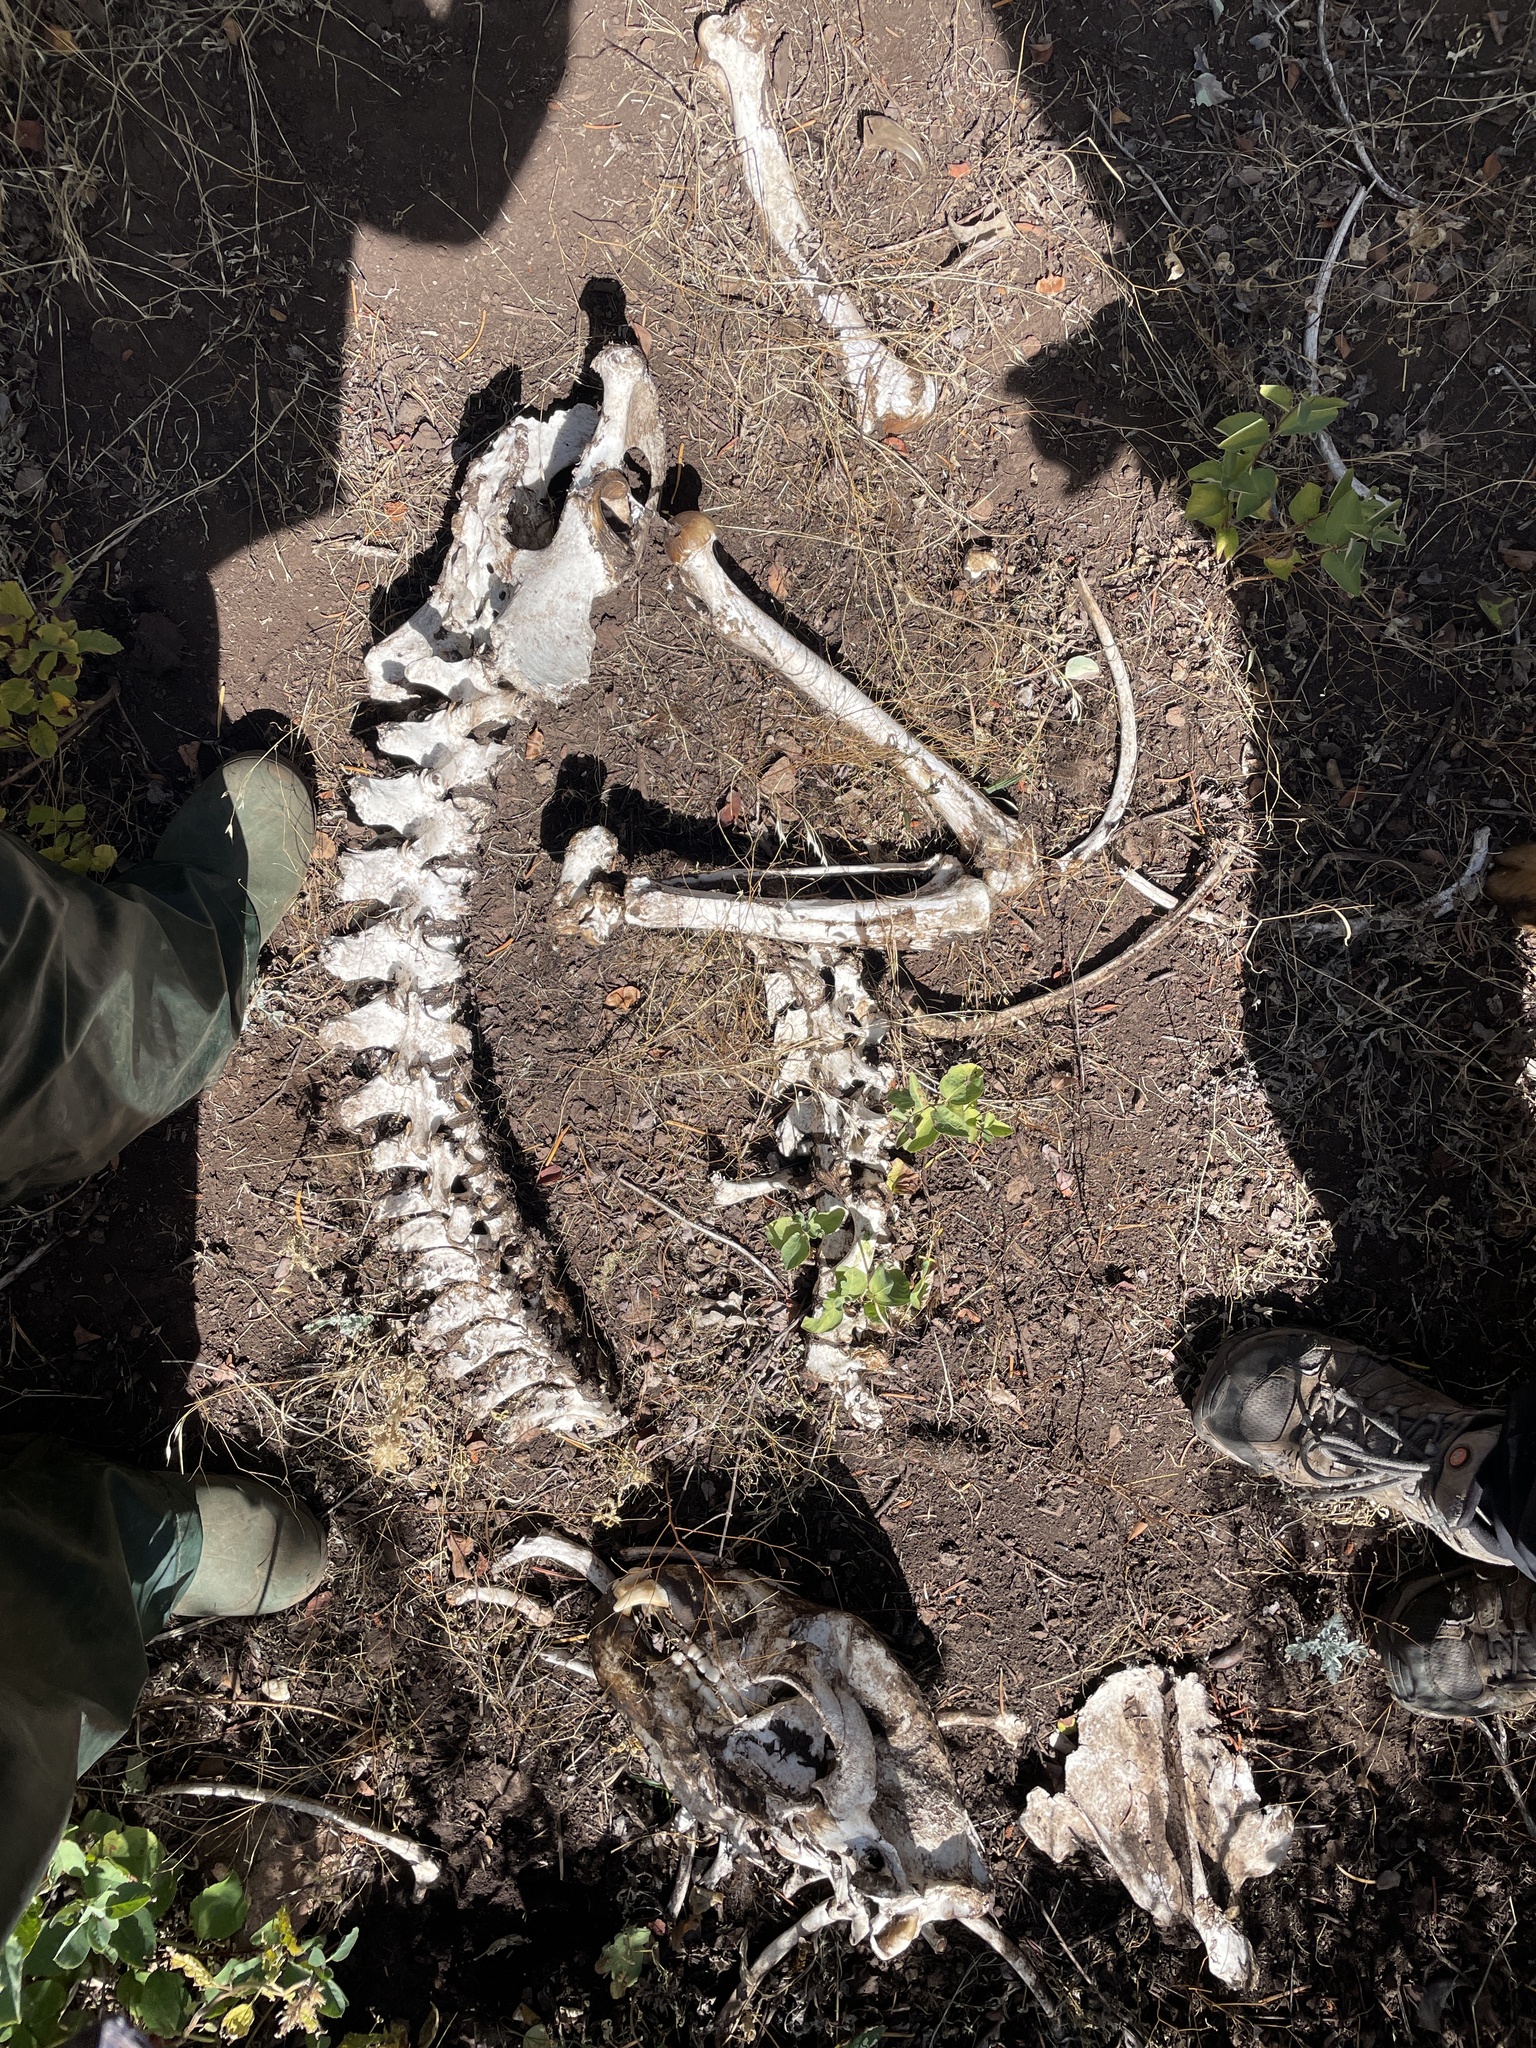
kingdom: Animalia
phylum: Chordata
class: Mammalia
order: Carnivora
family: Ursidae
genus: Ursus
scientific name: Ursus americanus
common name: American black bear
